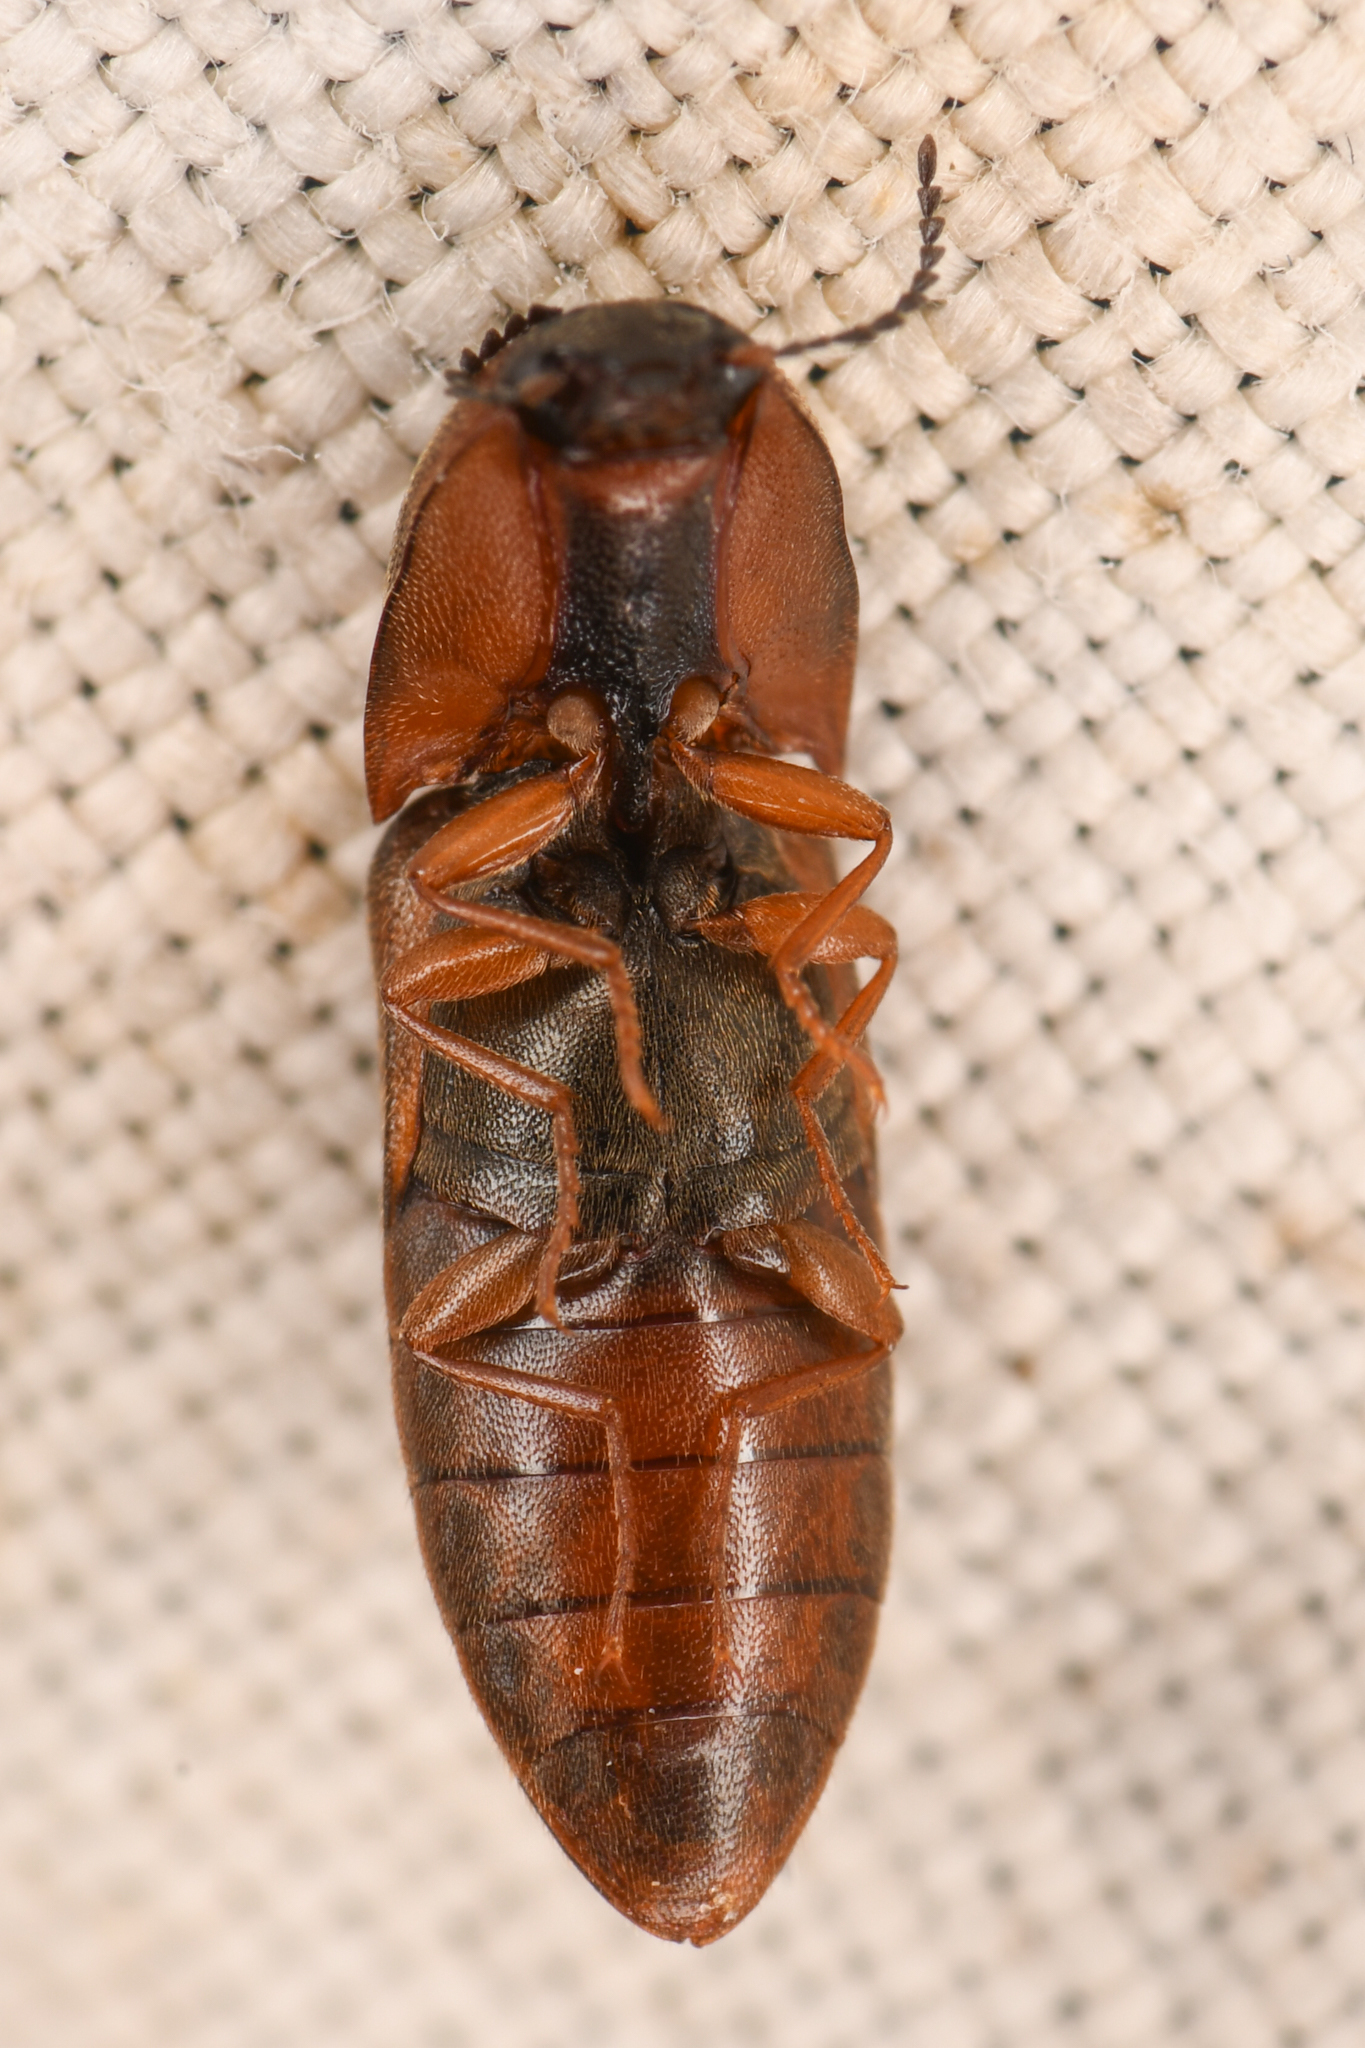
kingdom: Animalia
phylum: Arthropoda
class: Insecta
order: Coleoptera
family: Elateridae
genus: Sericus
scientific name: Sericus incongruus
